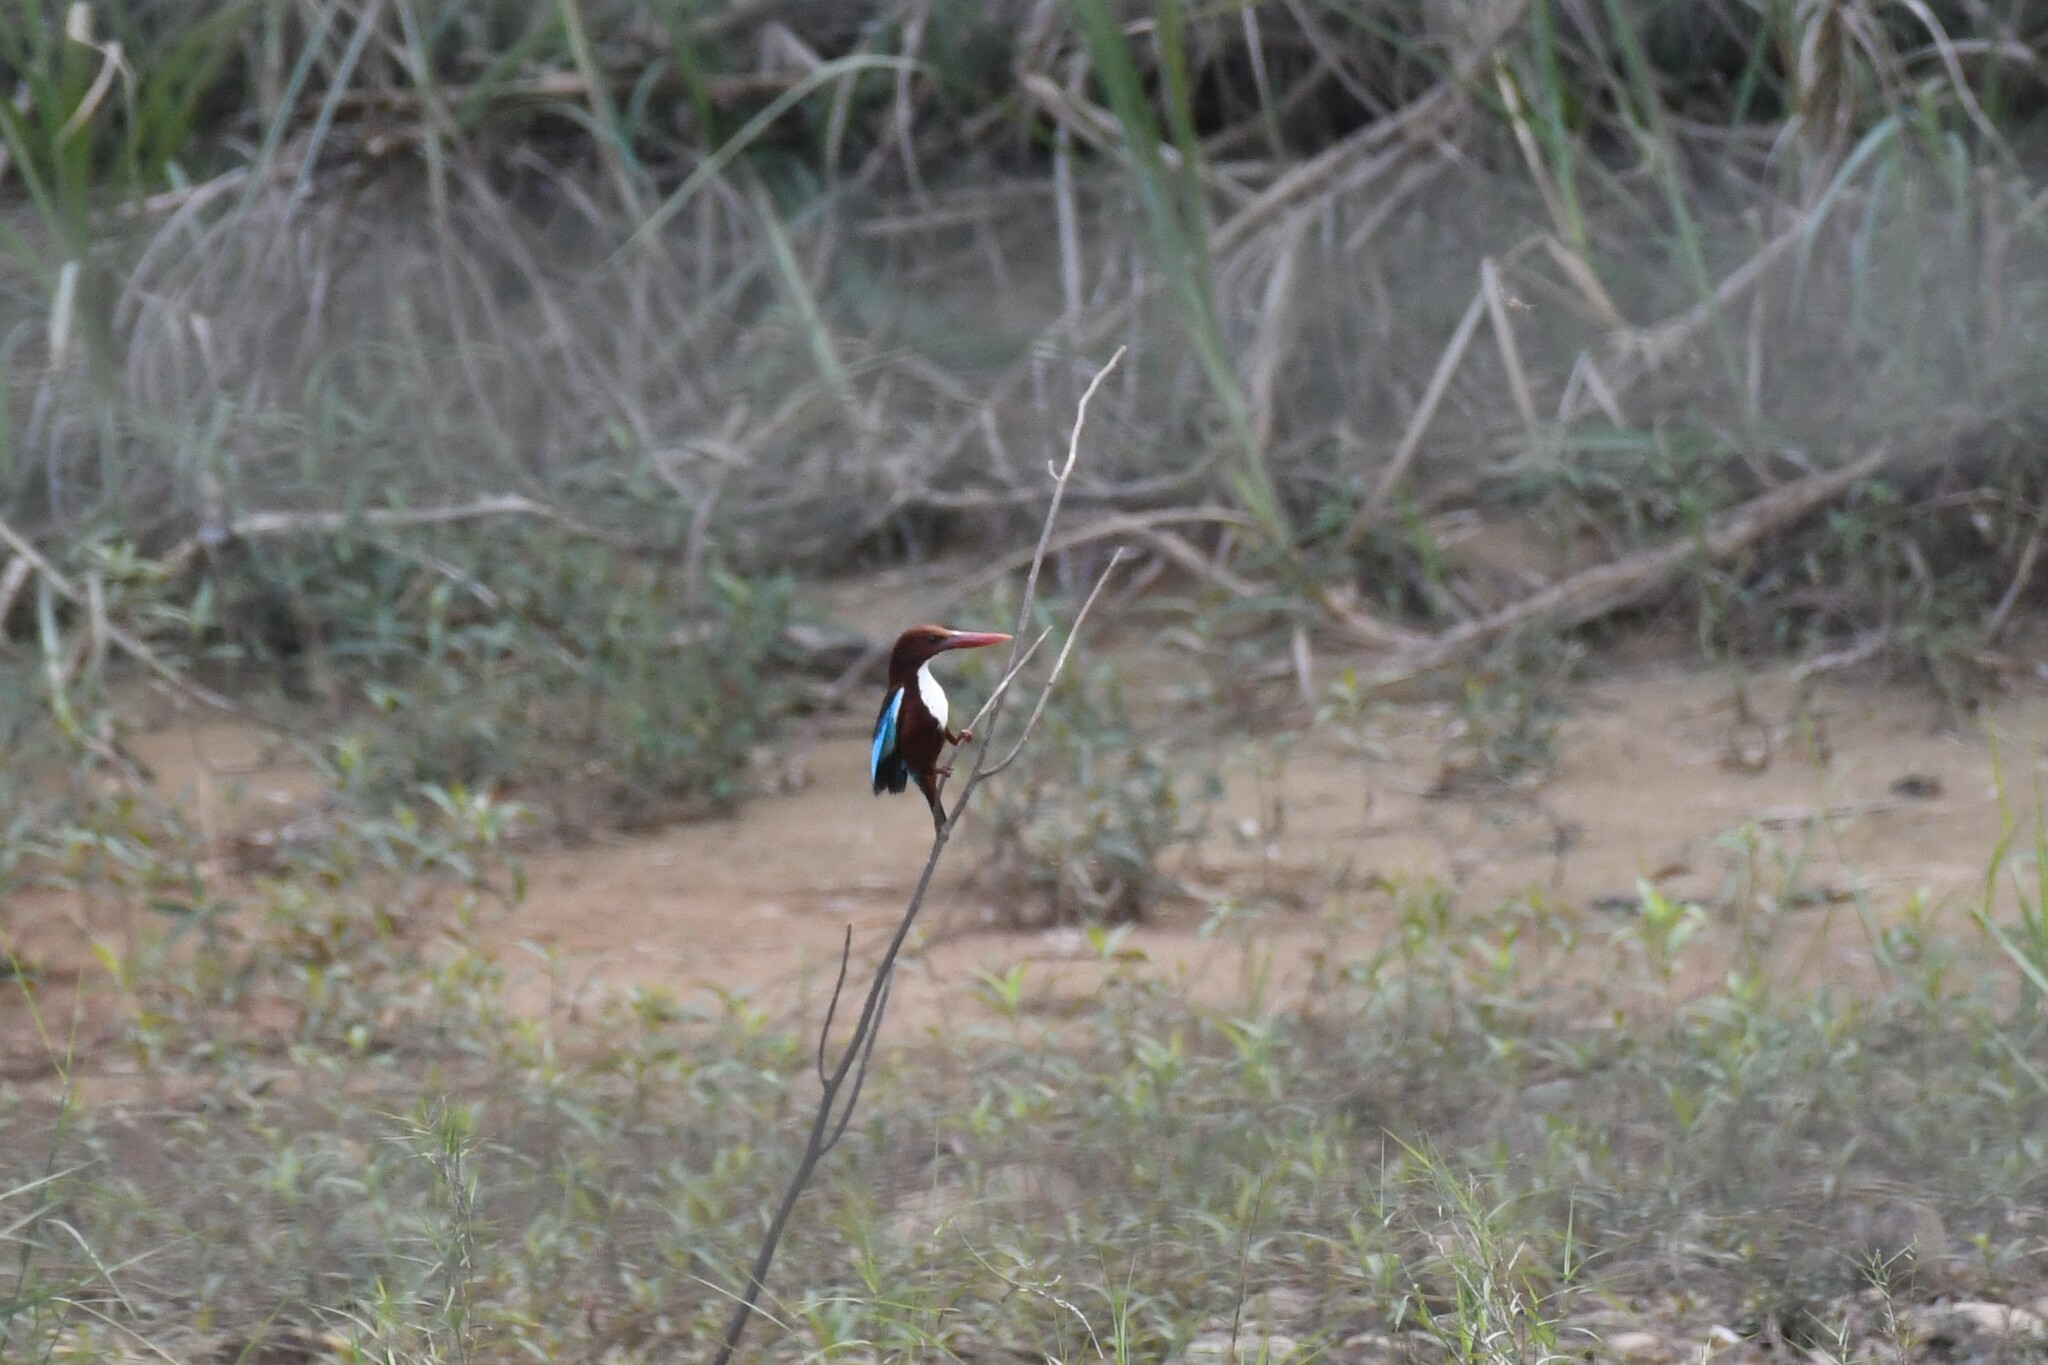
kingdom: Animalia
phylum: Chordata
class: Aves
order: Coraciiformes
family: Alcedinidae
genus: Halcyon
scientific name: Halcyon smyrnensis
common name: White-throated kingfisher
